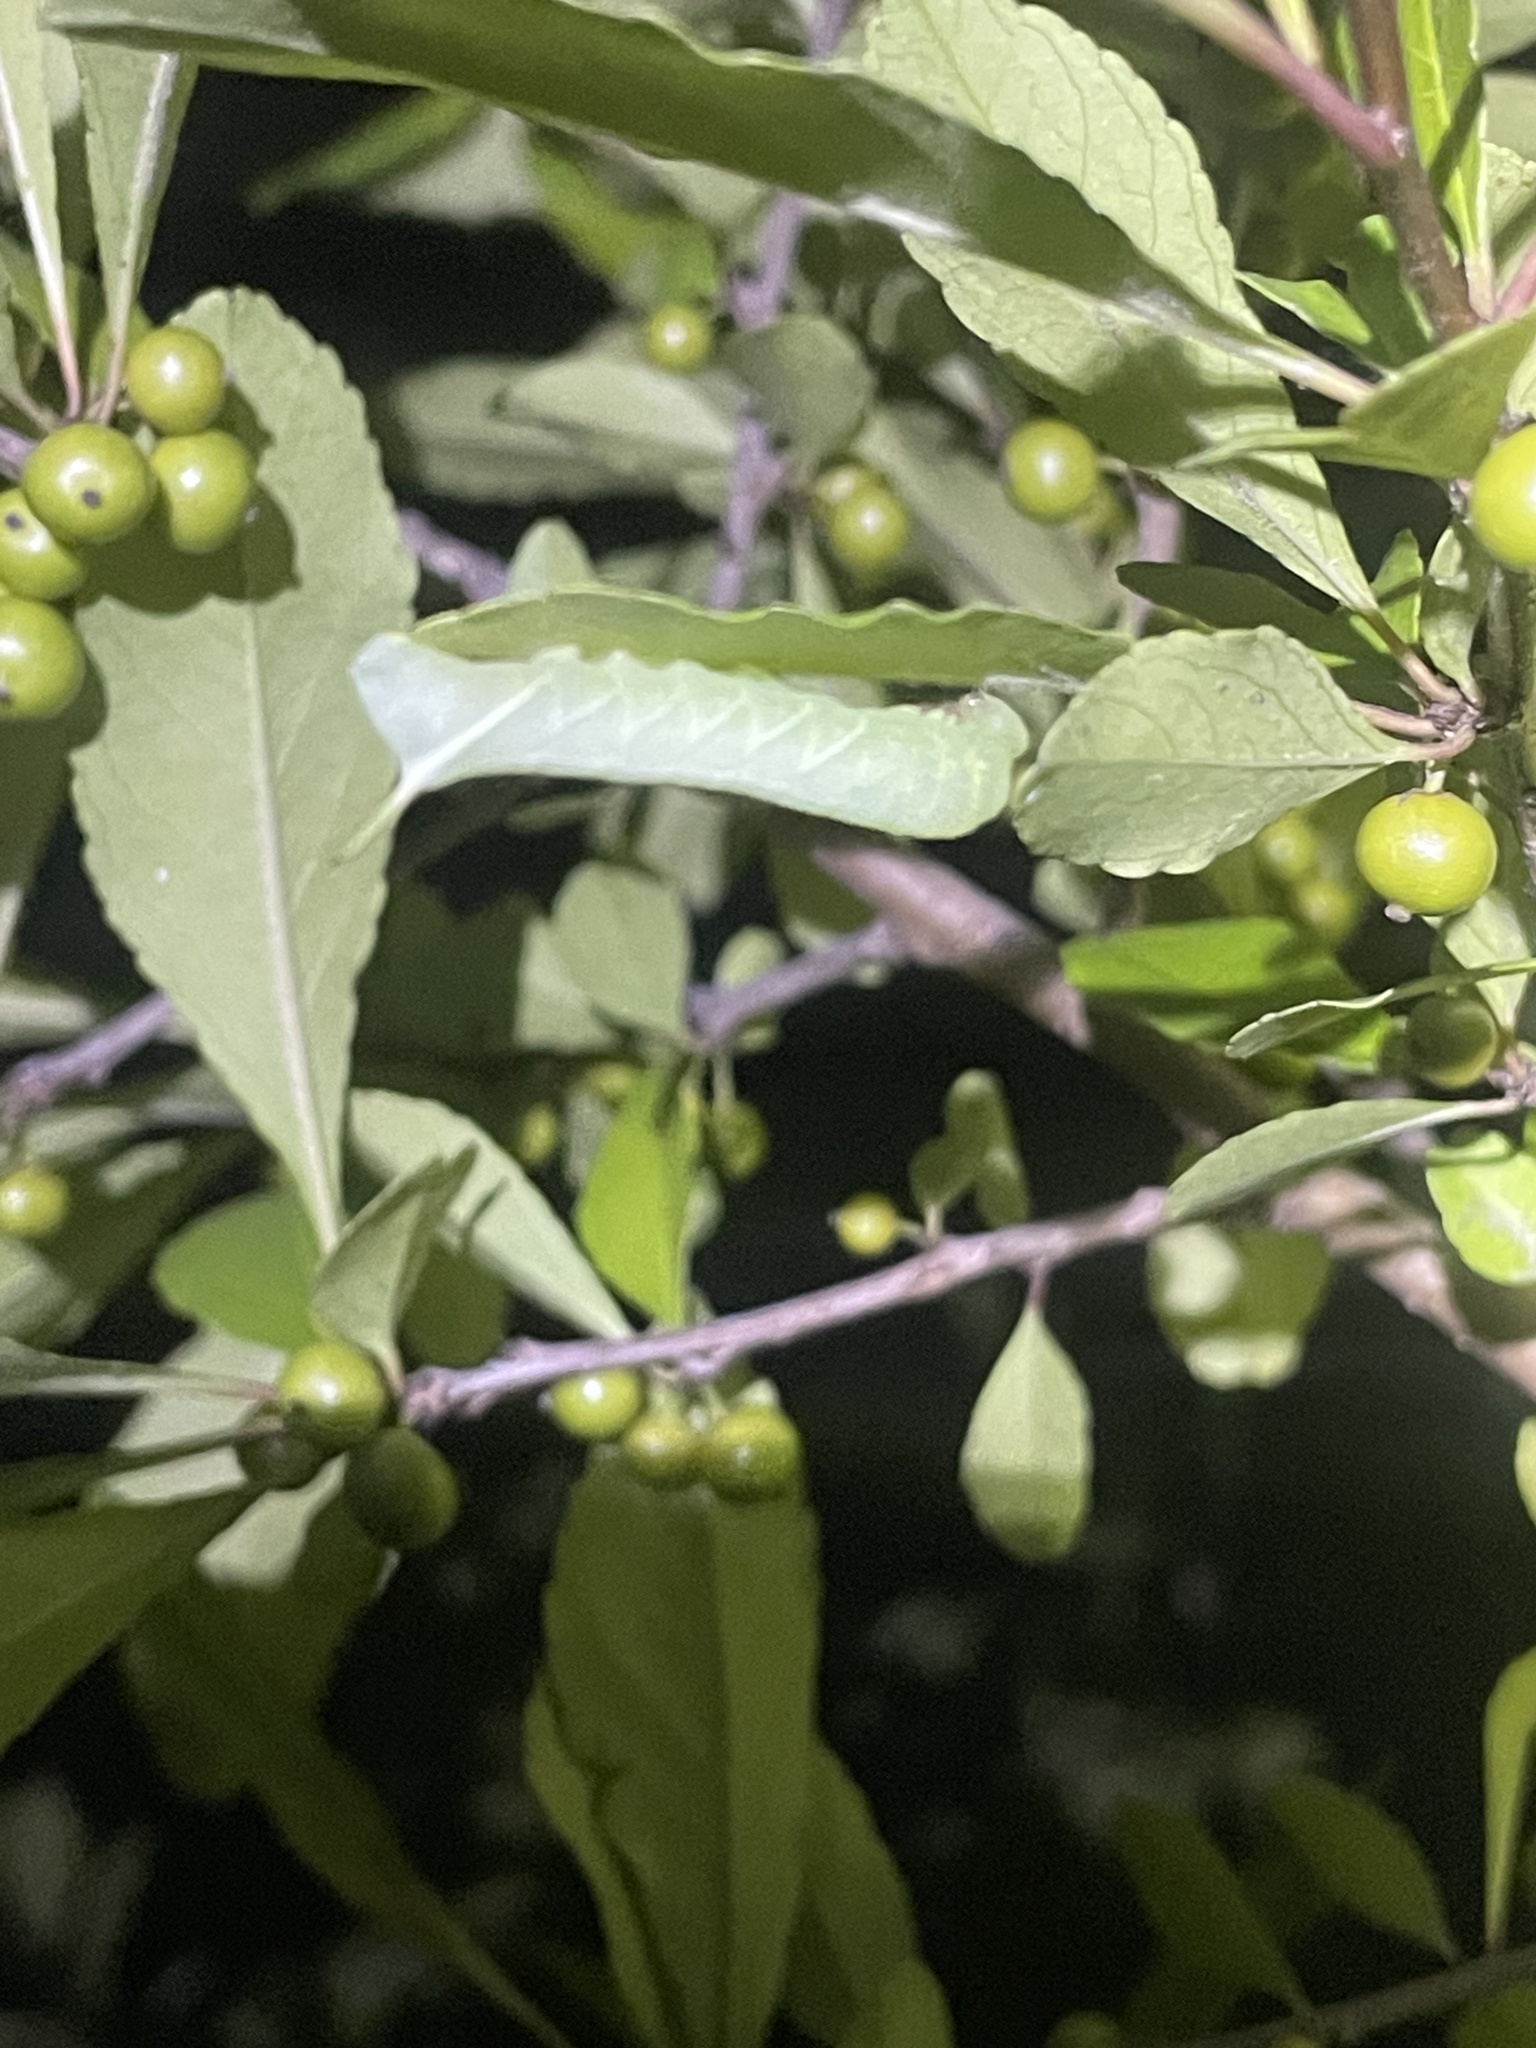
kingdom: Animalia
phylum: Arthropoda
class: Insecta
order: Lepidoptera
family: Sphingidae
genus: Dolba
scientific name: Dolba hyloeus
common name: Pawpaw sphinx
